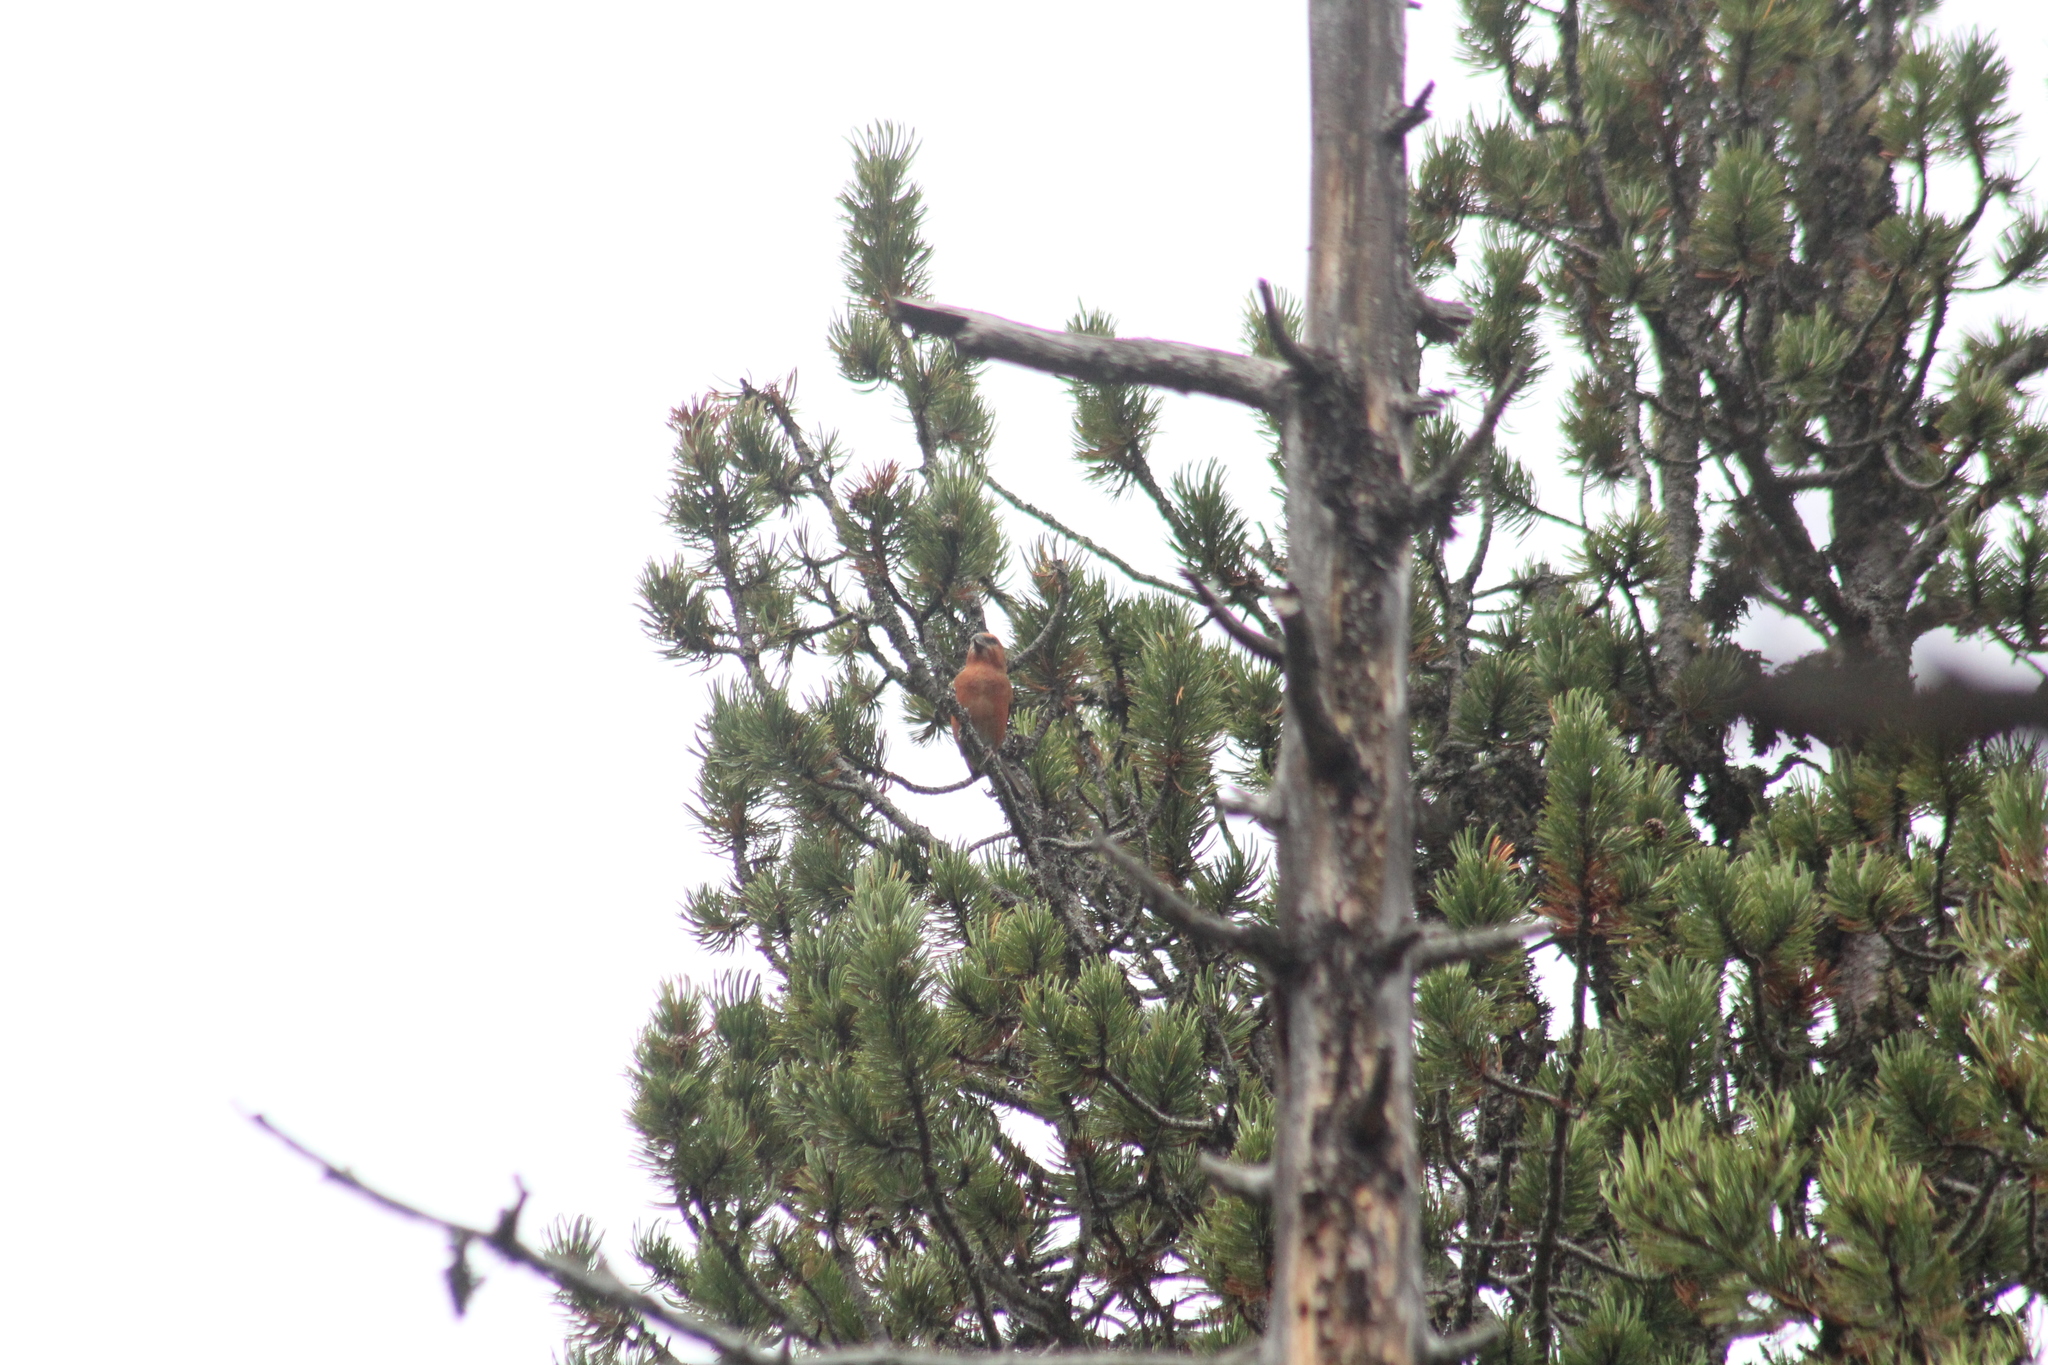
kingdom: Animalia
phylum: Chordata
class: Aves
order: Passeriformes
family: Fringillidae
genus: Loxia
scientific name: Loxia curvirostra
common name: Red crossbill
